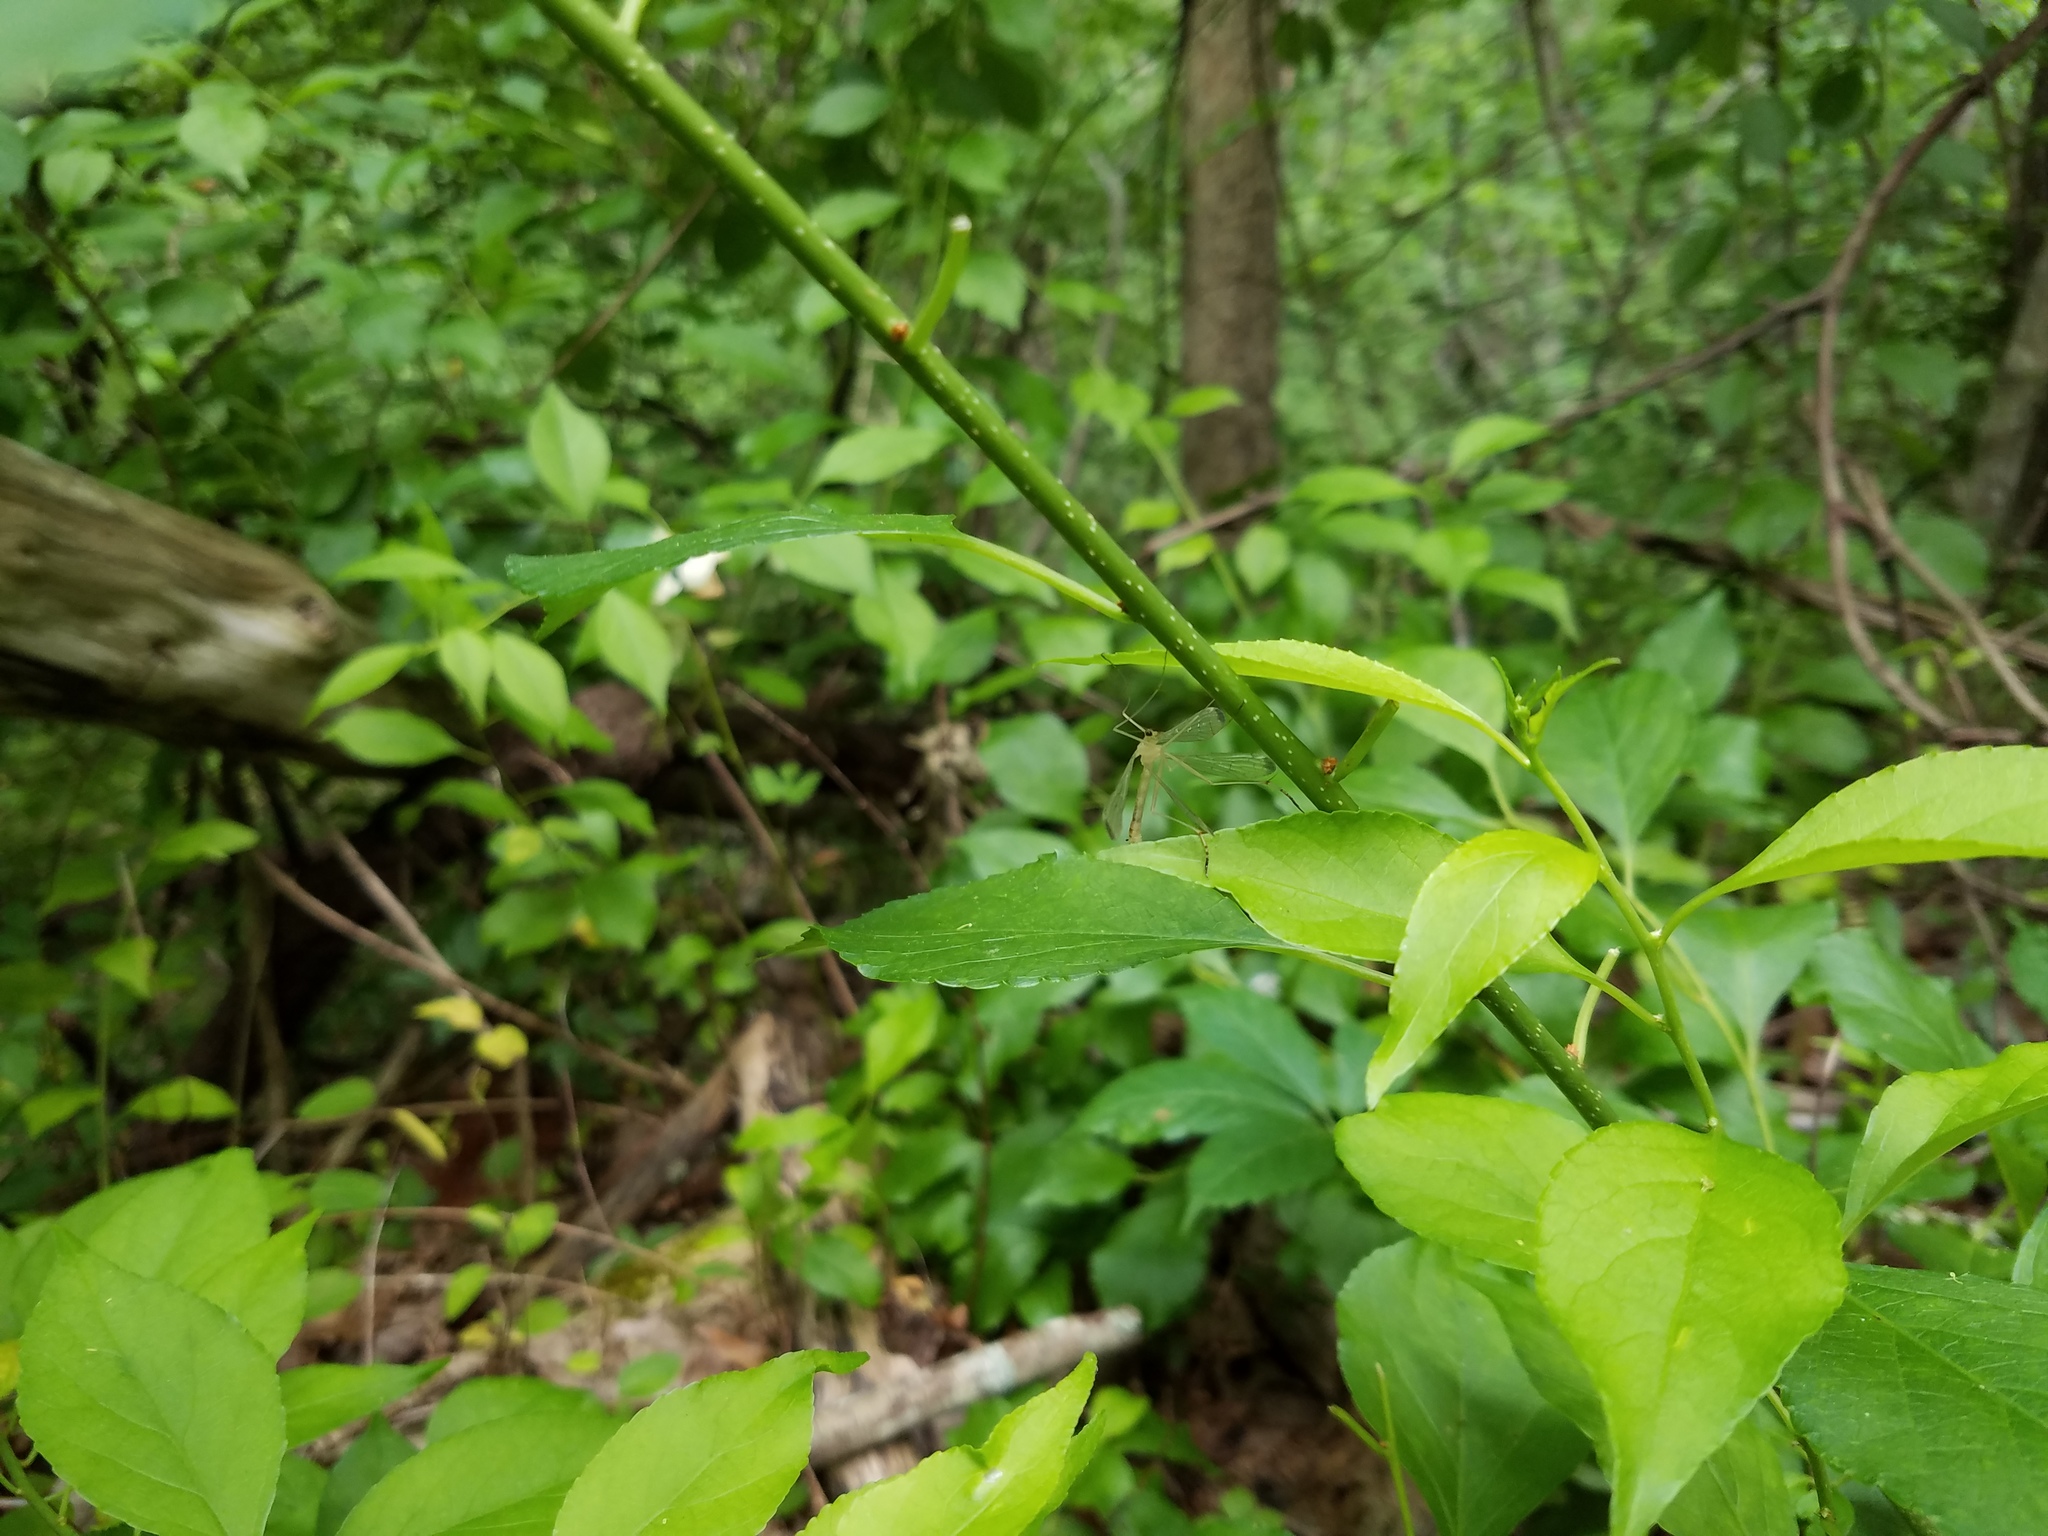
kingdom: Animalia
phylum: Arthropoda
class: Insecta
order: Mecoptera
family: Bittacidae
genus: Hylobittacus
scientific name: Hylobittacus apicalis
